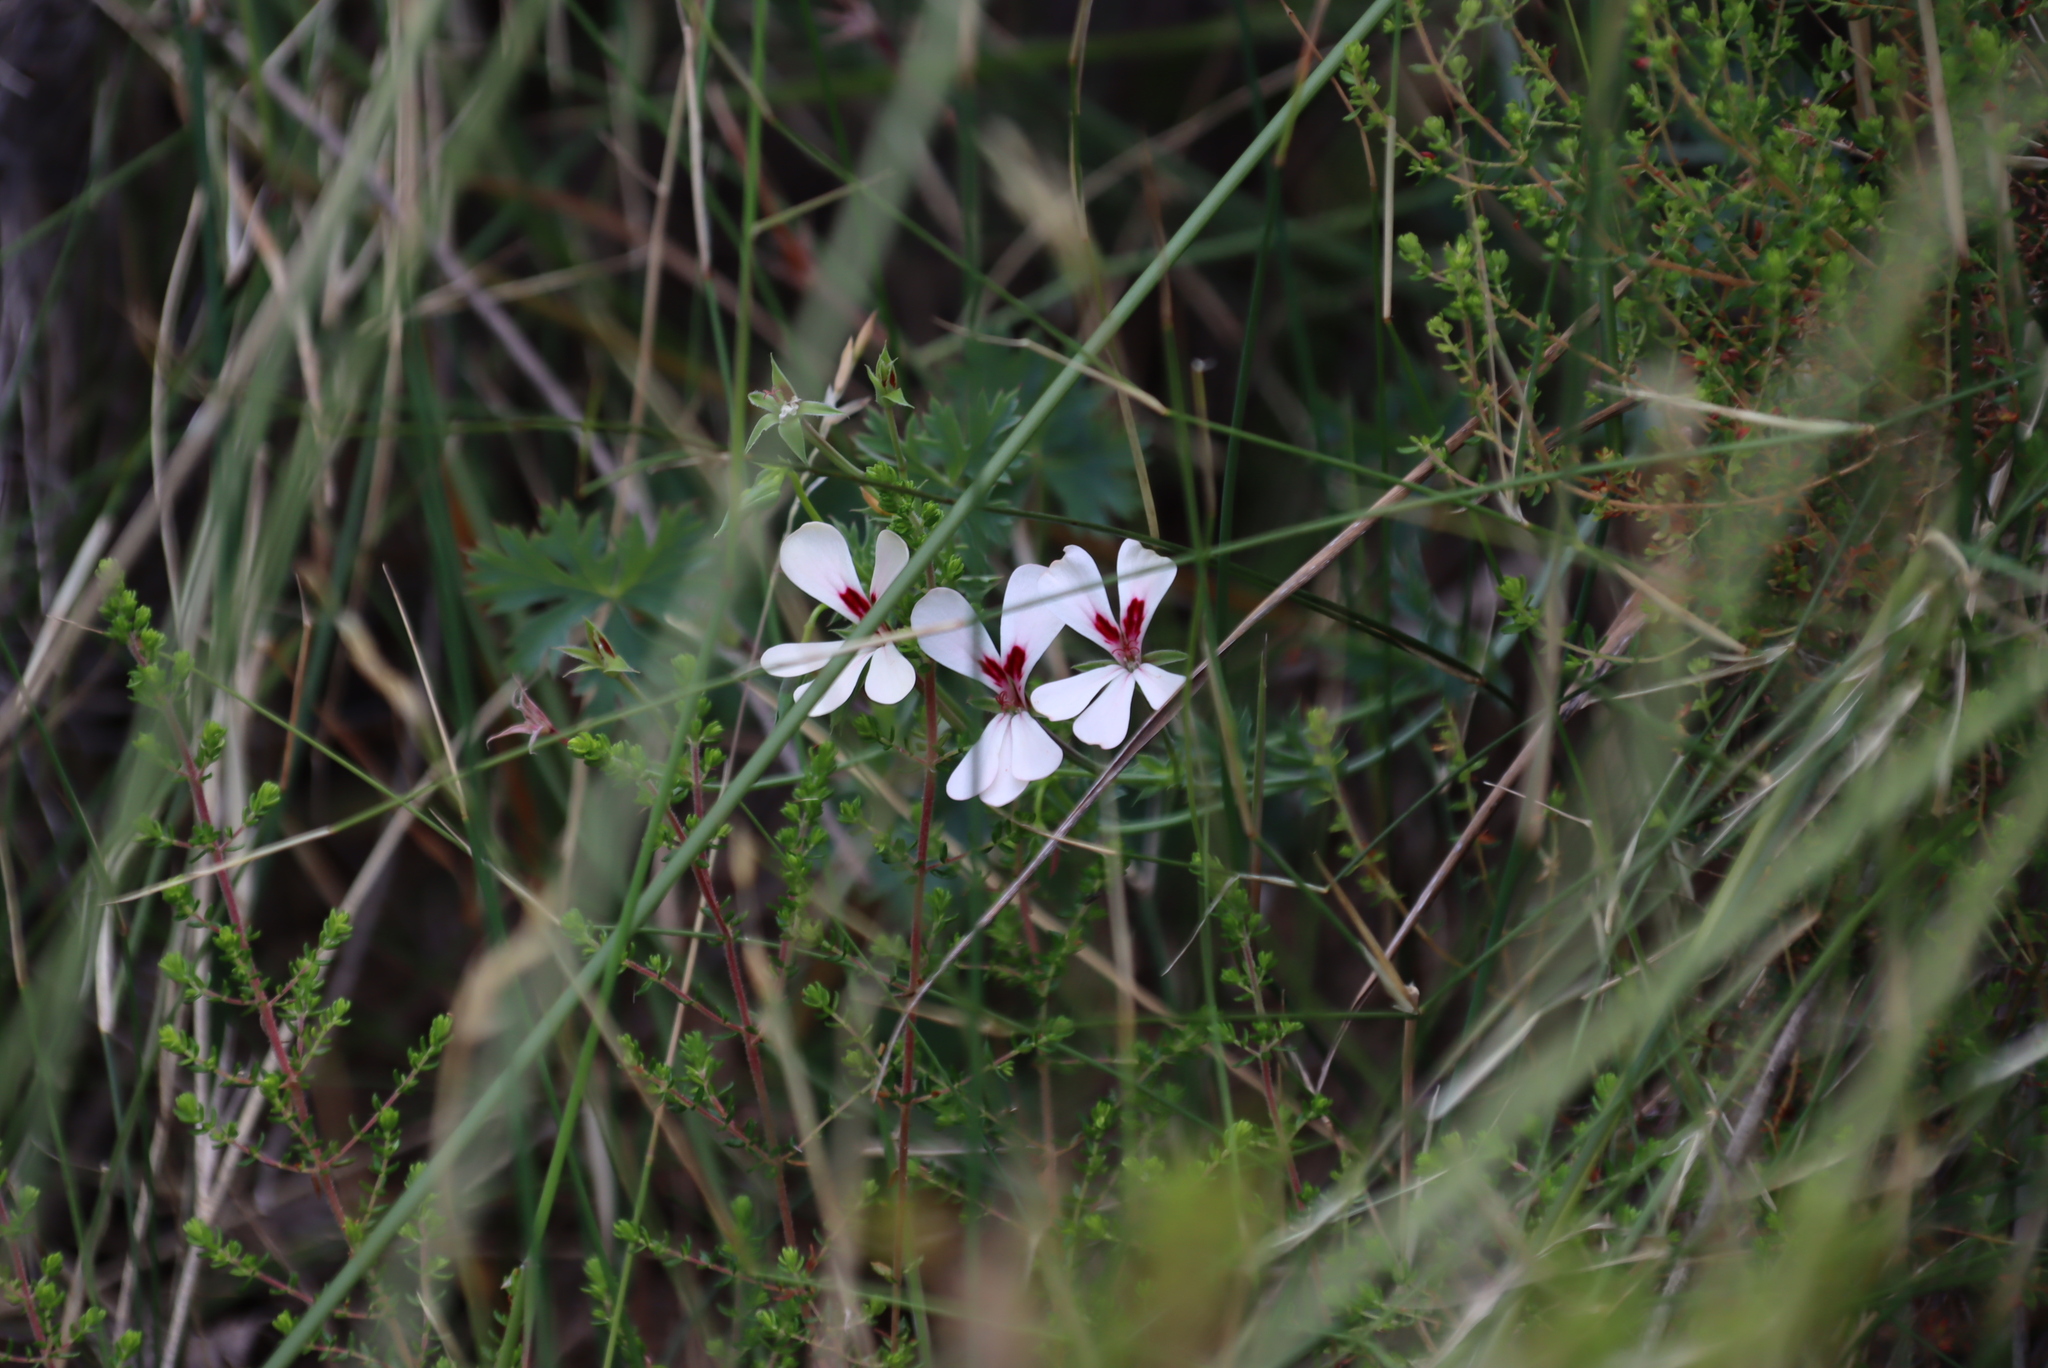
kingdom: Plantae
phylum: Tracheophyta
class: Magnoliopsida
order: Geraniales
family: Geraniaceae
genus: Pelargonium
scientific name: Pelargonium patulum
